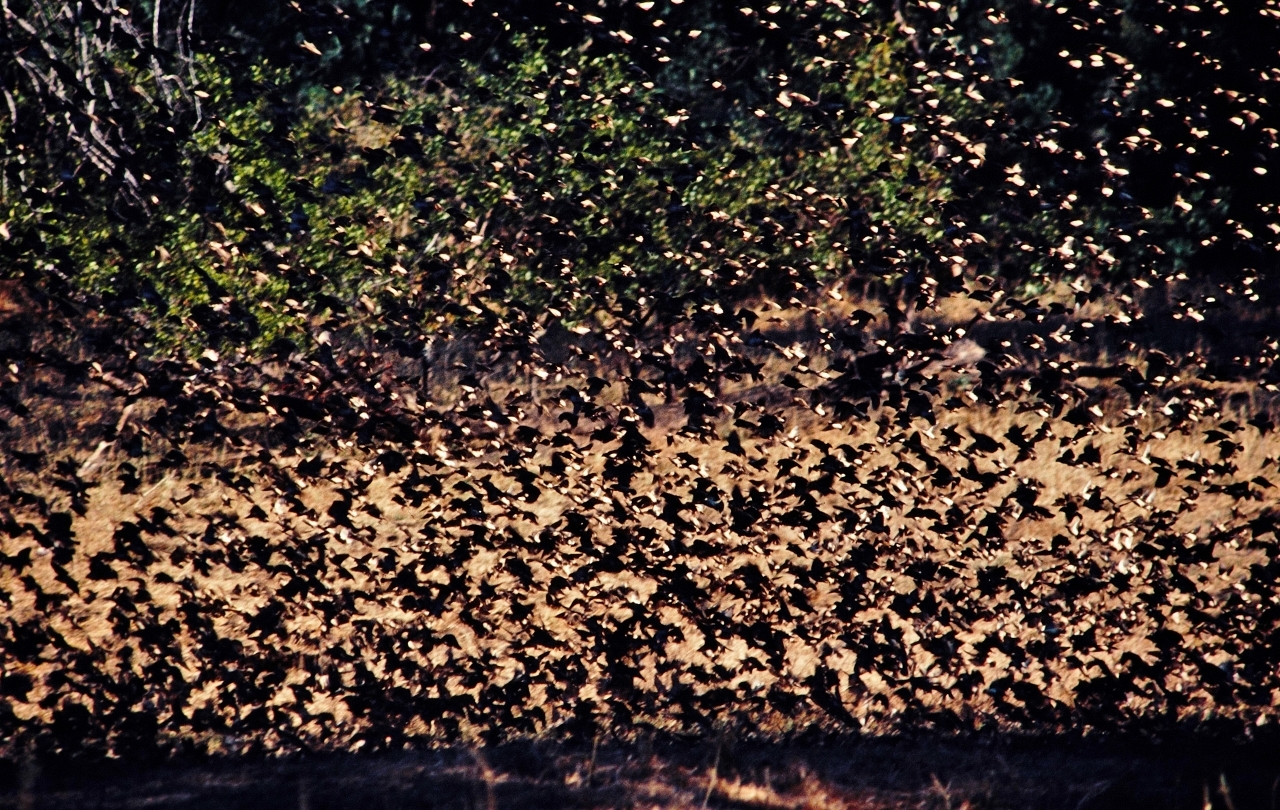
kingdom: Animalia
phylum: Chordata
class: Aves
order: Passeriformes
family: Ploceidae
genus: Quelea
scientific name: Quelea quelea
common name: Red-billed quelea
